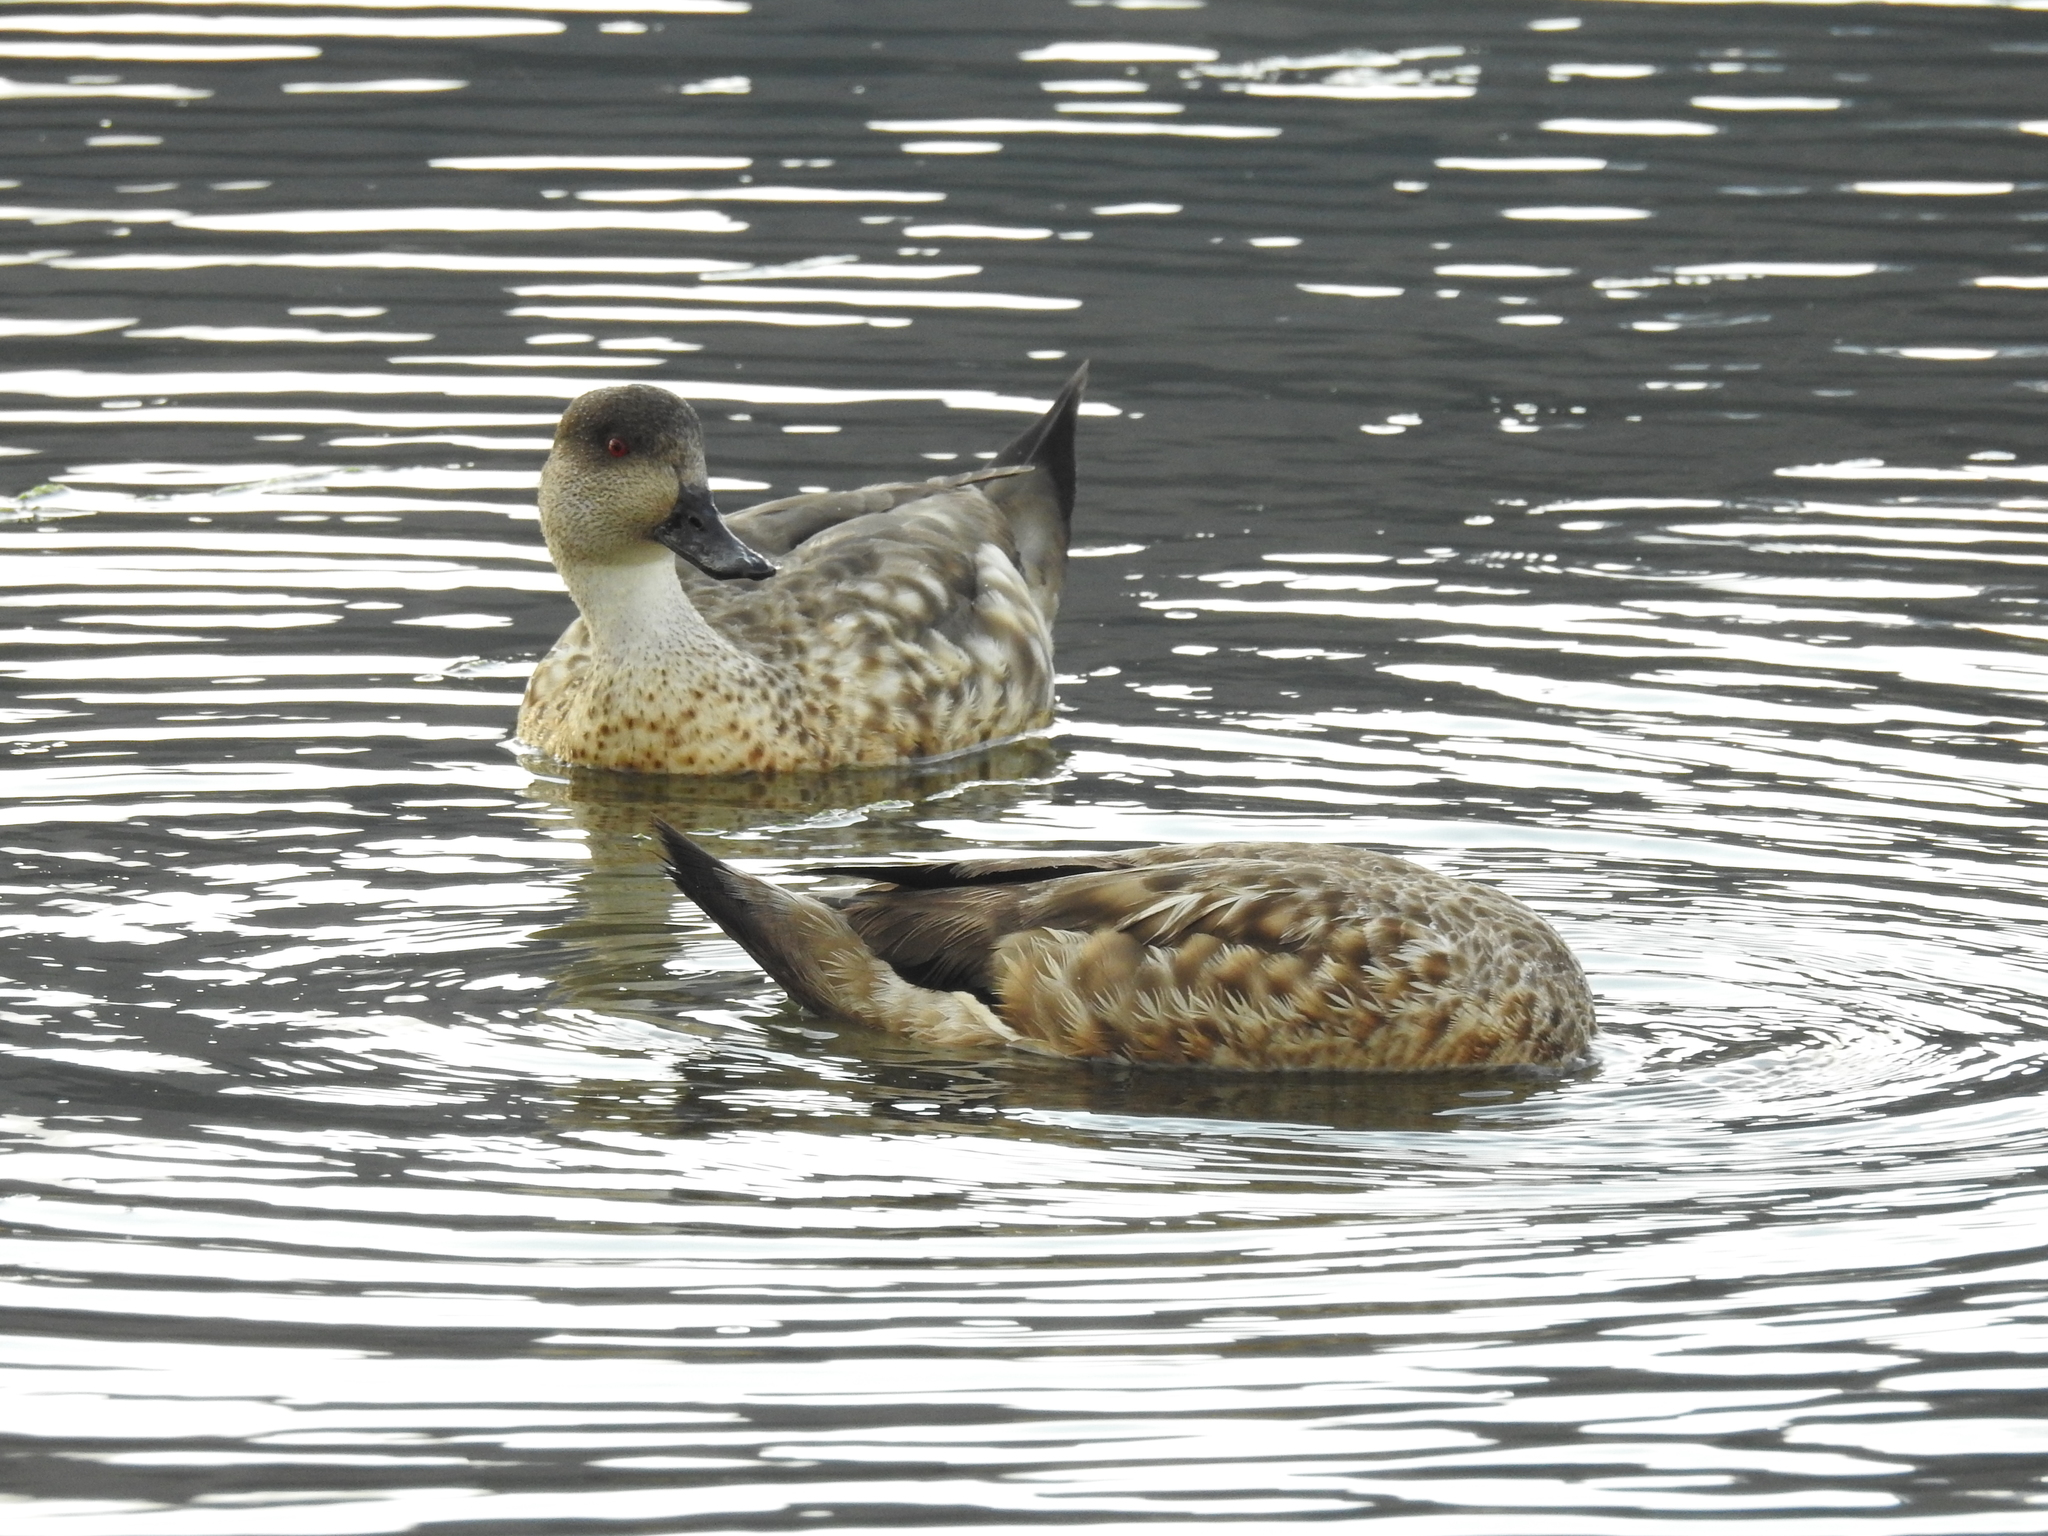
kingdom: Animalia
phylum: Chordata
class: Aves
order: Anseriformes
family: Anatidae
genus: Lophonetta
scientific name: Lophonetta specularioides
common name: Crested duck
